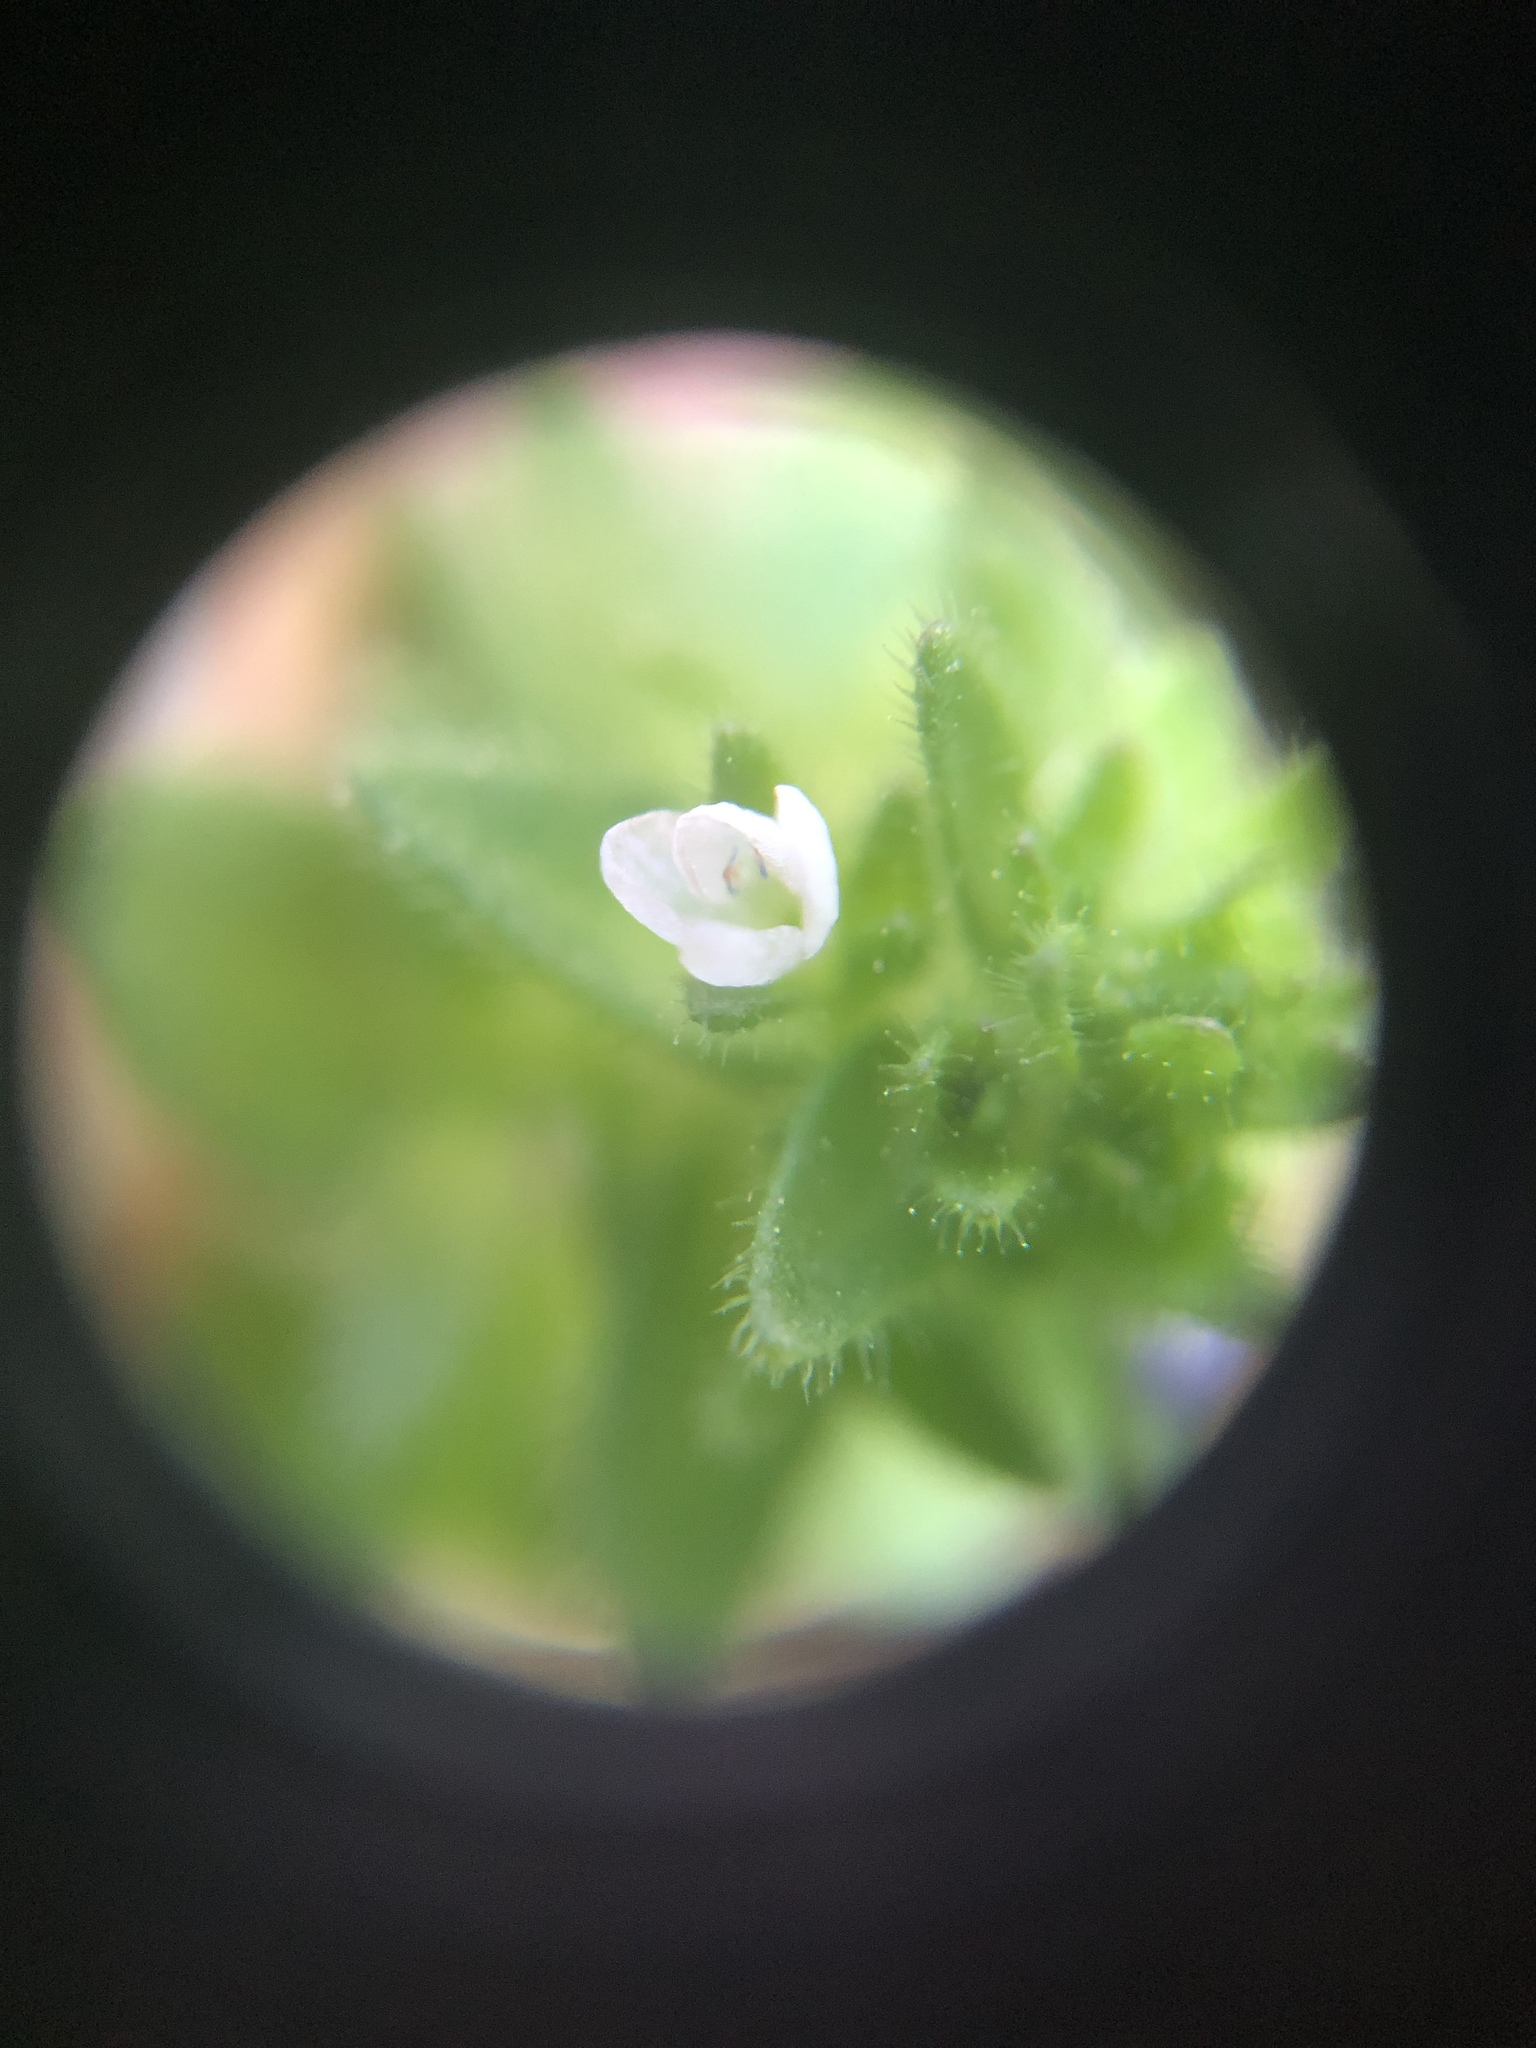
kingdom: Plantae
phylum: Tracheophyta
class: Magnoliopsida
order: Lamiales
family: Plantaginaceae
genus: Veronica
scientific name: Veronica arvensis
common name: Corn speedwell
